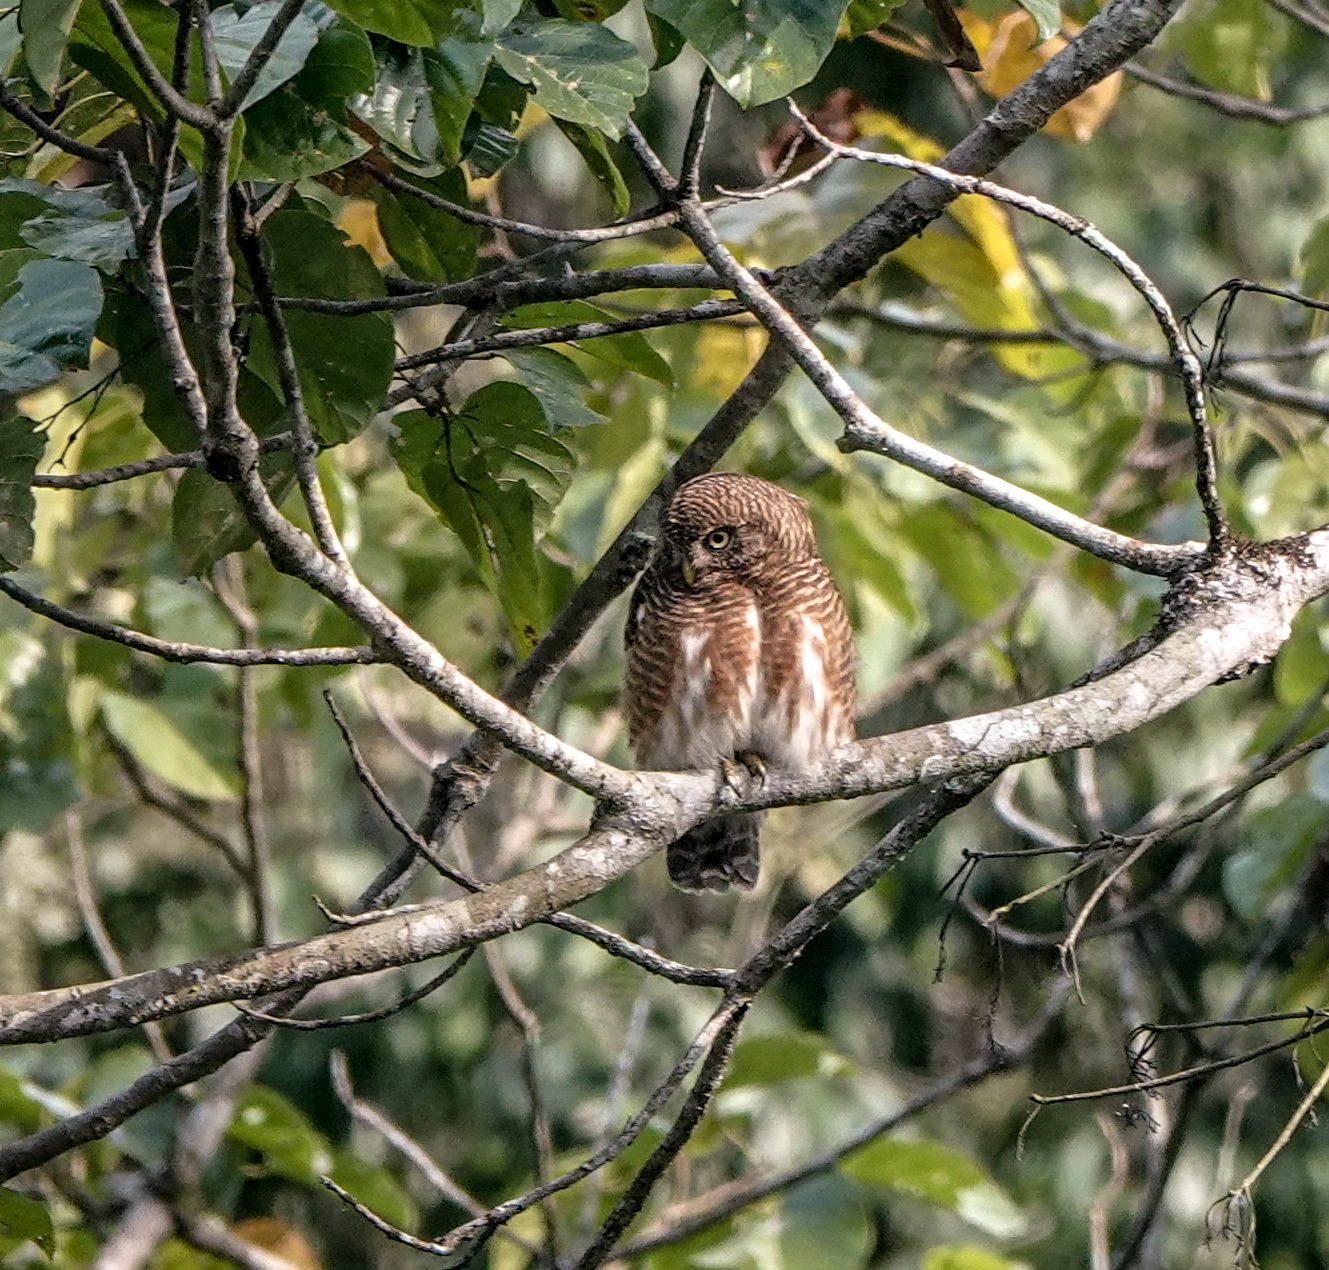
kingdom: Animalia
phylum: Chordata
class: Aves
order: Strigiformes
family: Strigidae
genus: Glaucidium
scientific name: Glaucidium cuculoides
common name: Asian barred owlet
